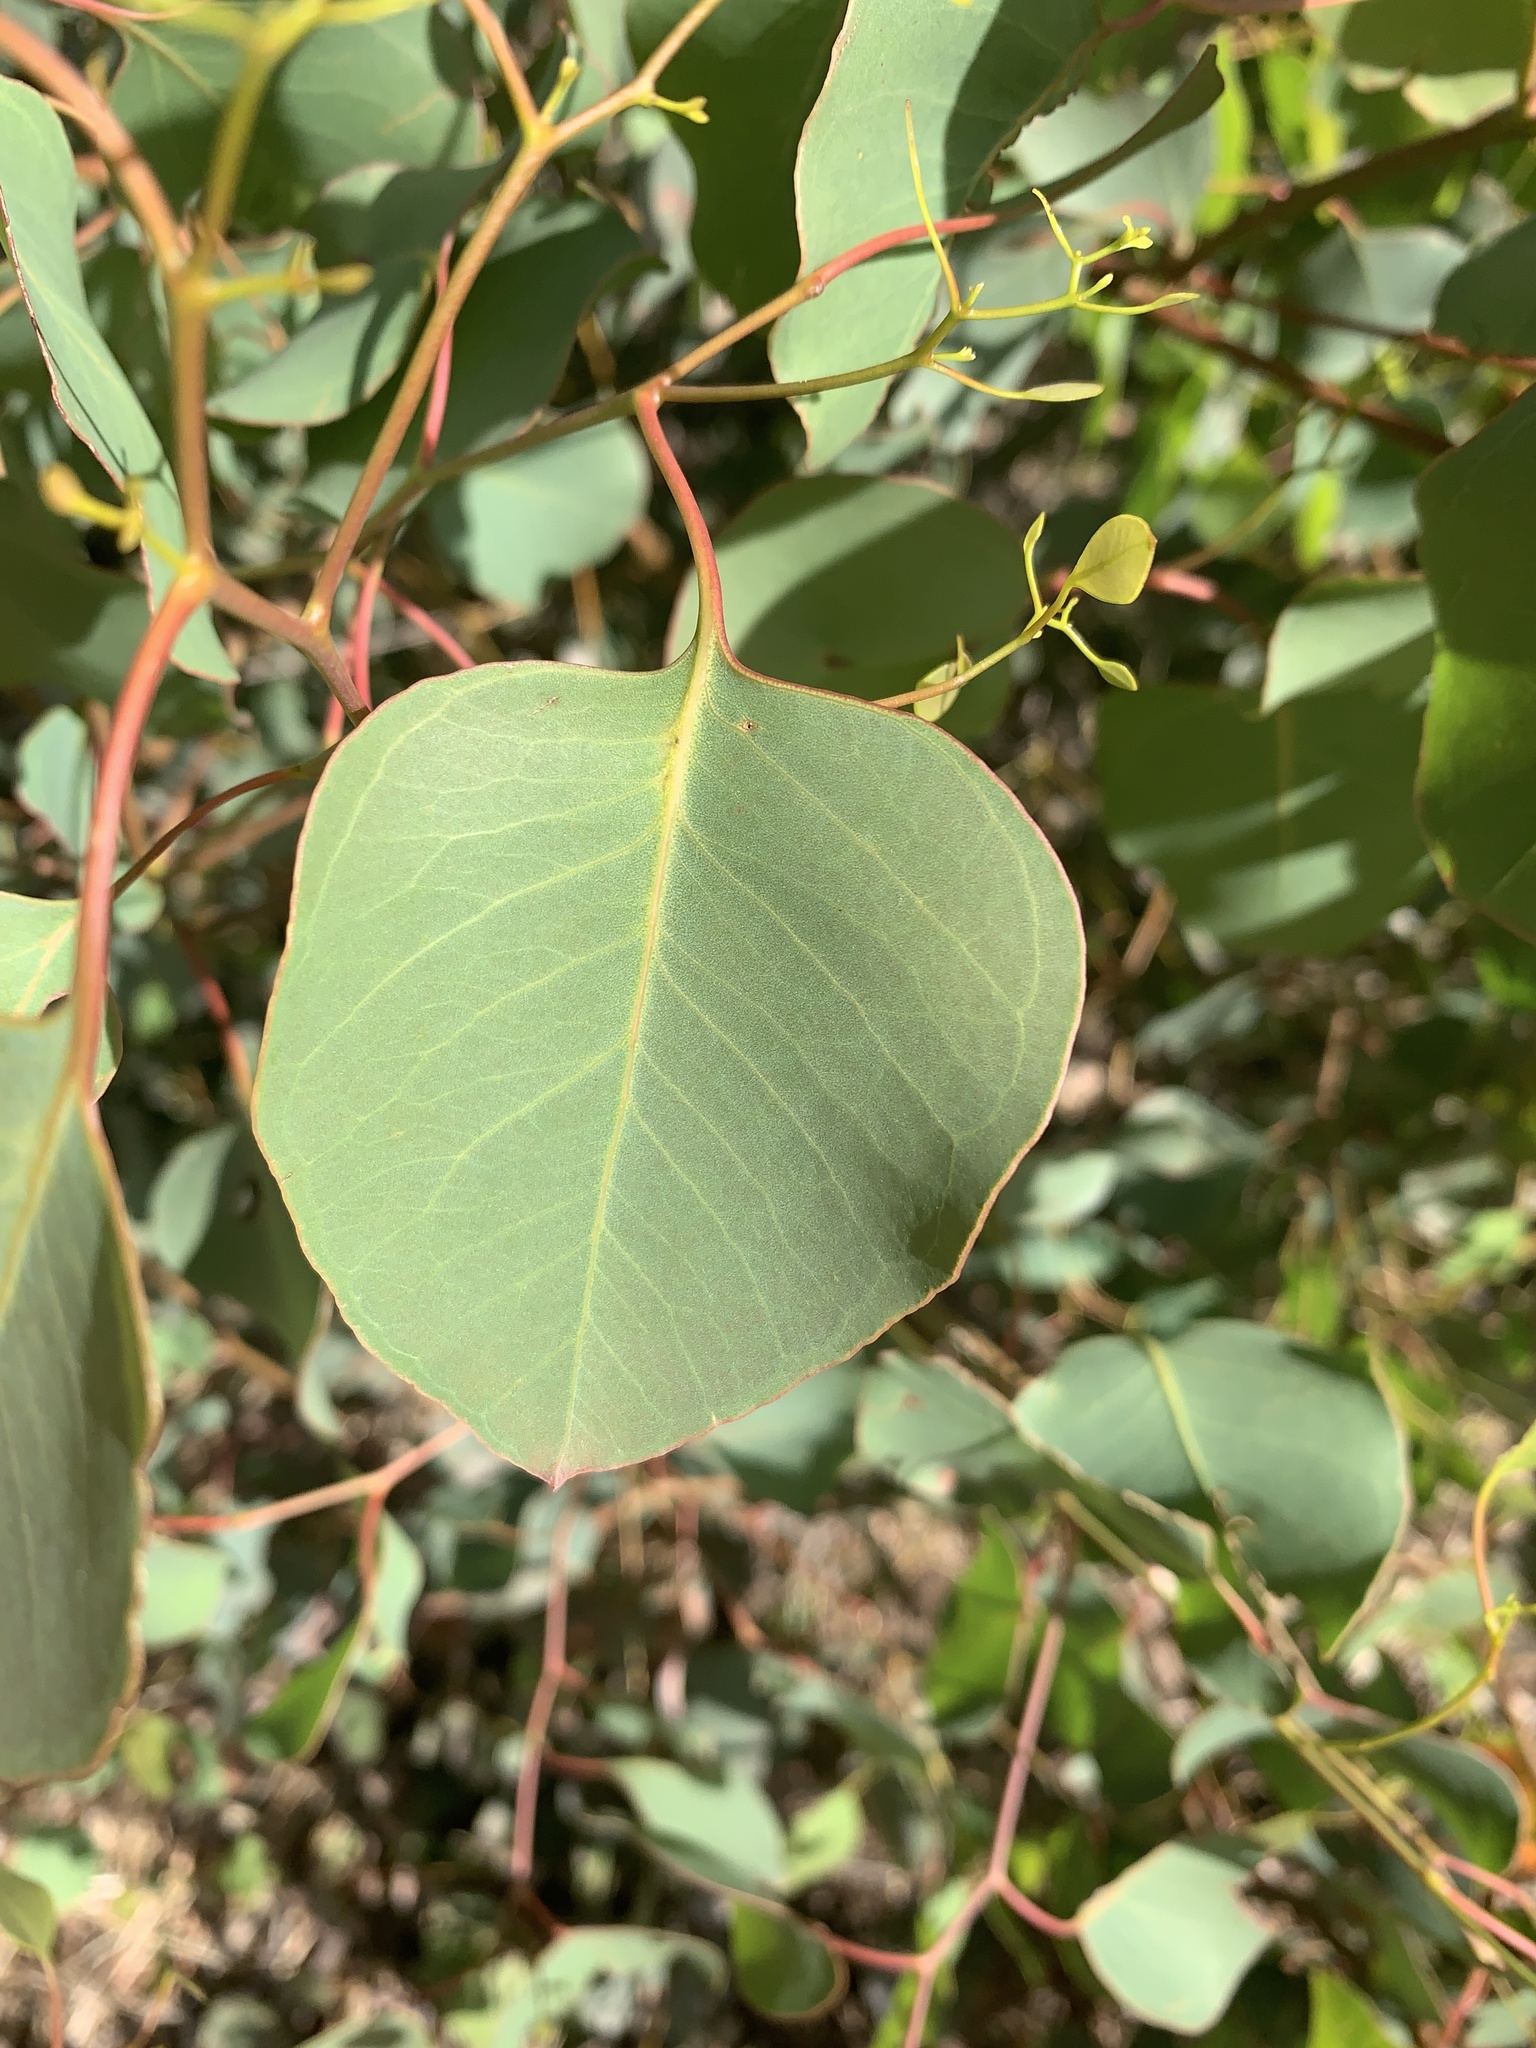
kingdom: Plantae
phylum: Tracheophyta
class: Magnoliopsida
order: Myrtales
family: Myrtaceae
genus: Eucalyptus
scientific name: Eucalyptus baueriana
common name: Round-leaf-box
